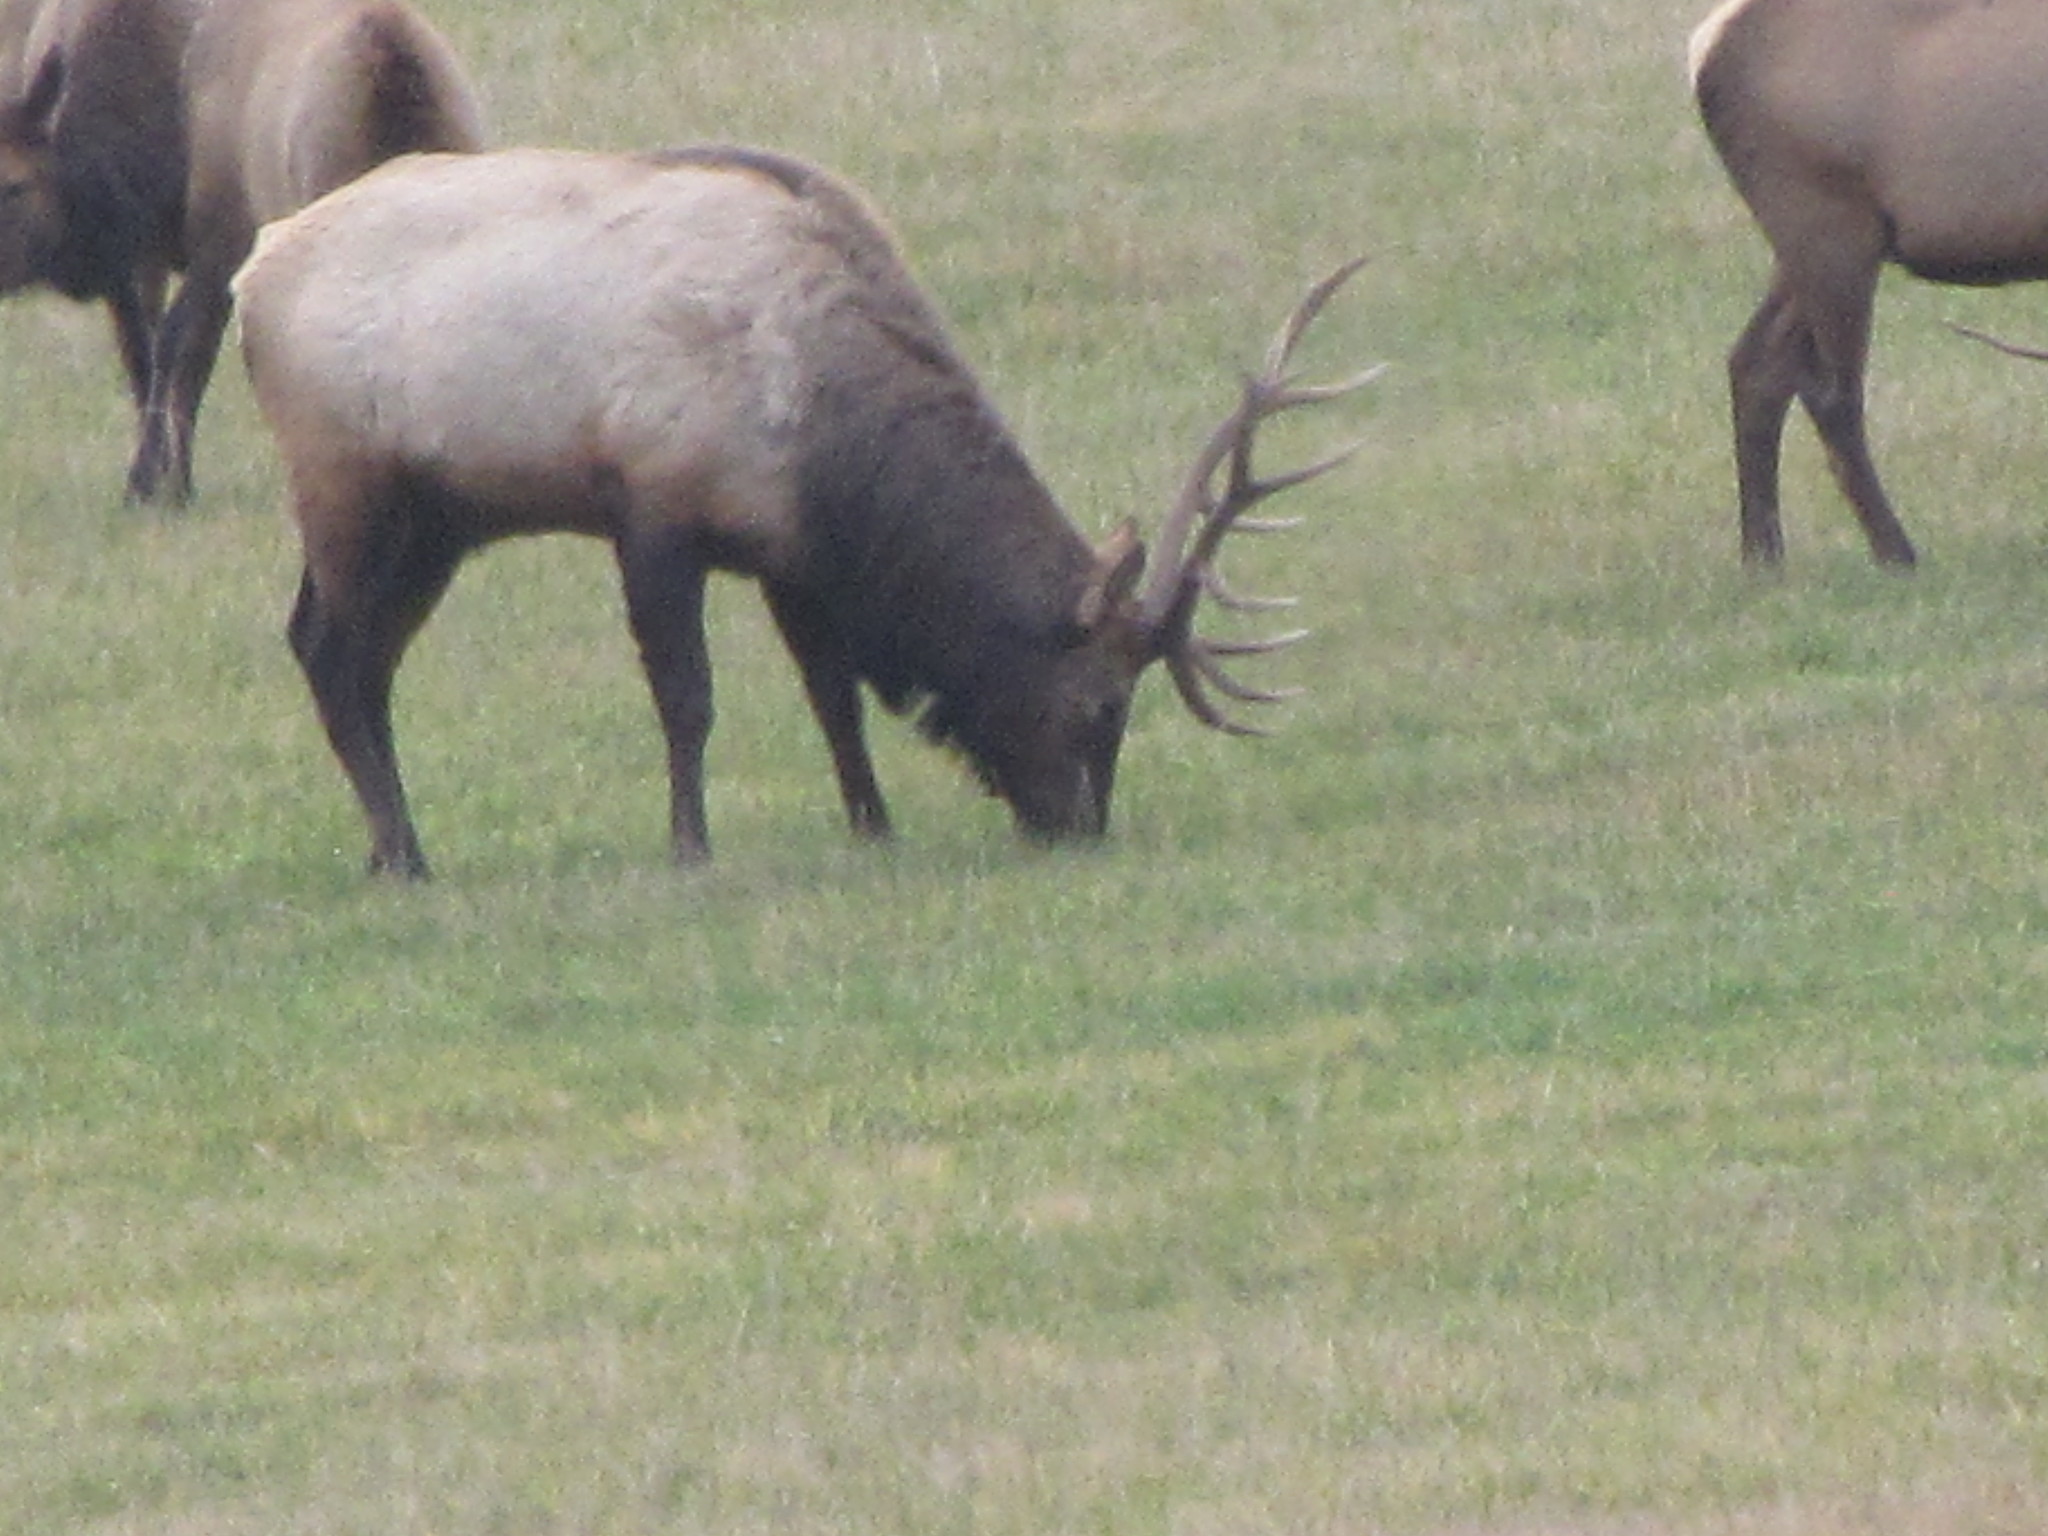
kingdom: Animalia
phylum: Chordata
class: Mammalia
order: Artiodactyla
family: Cervidae
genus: Cervus
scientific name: Cervus elaphus
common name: Red deer
